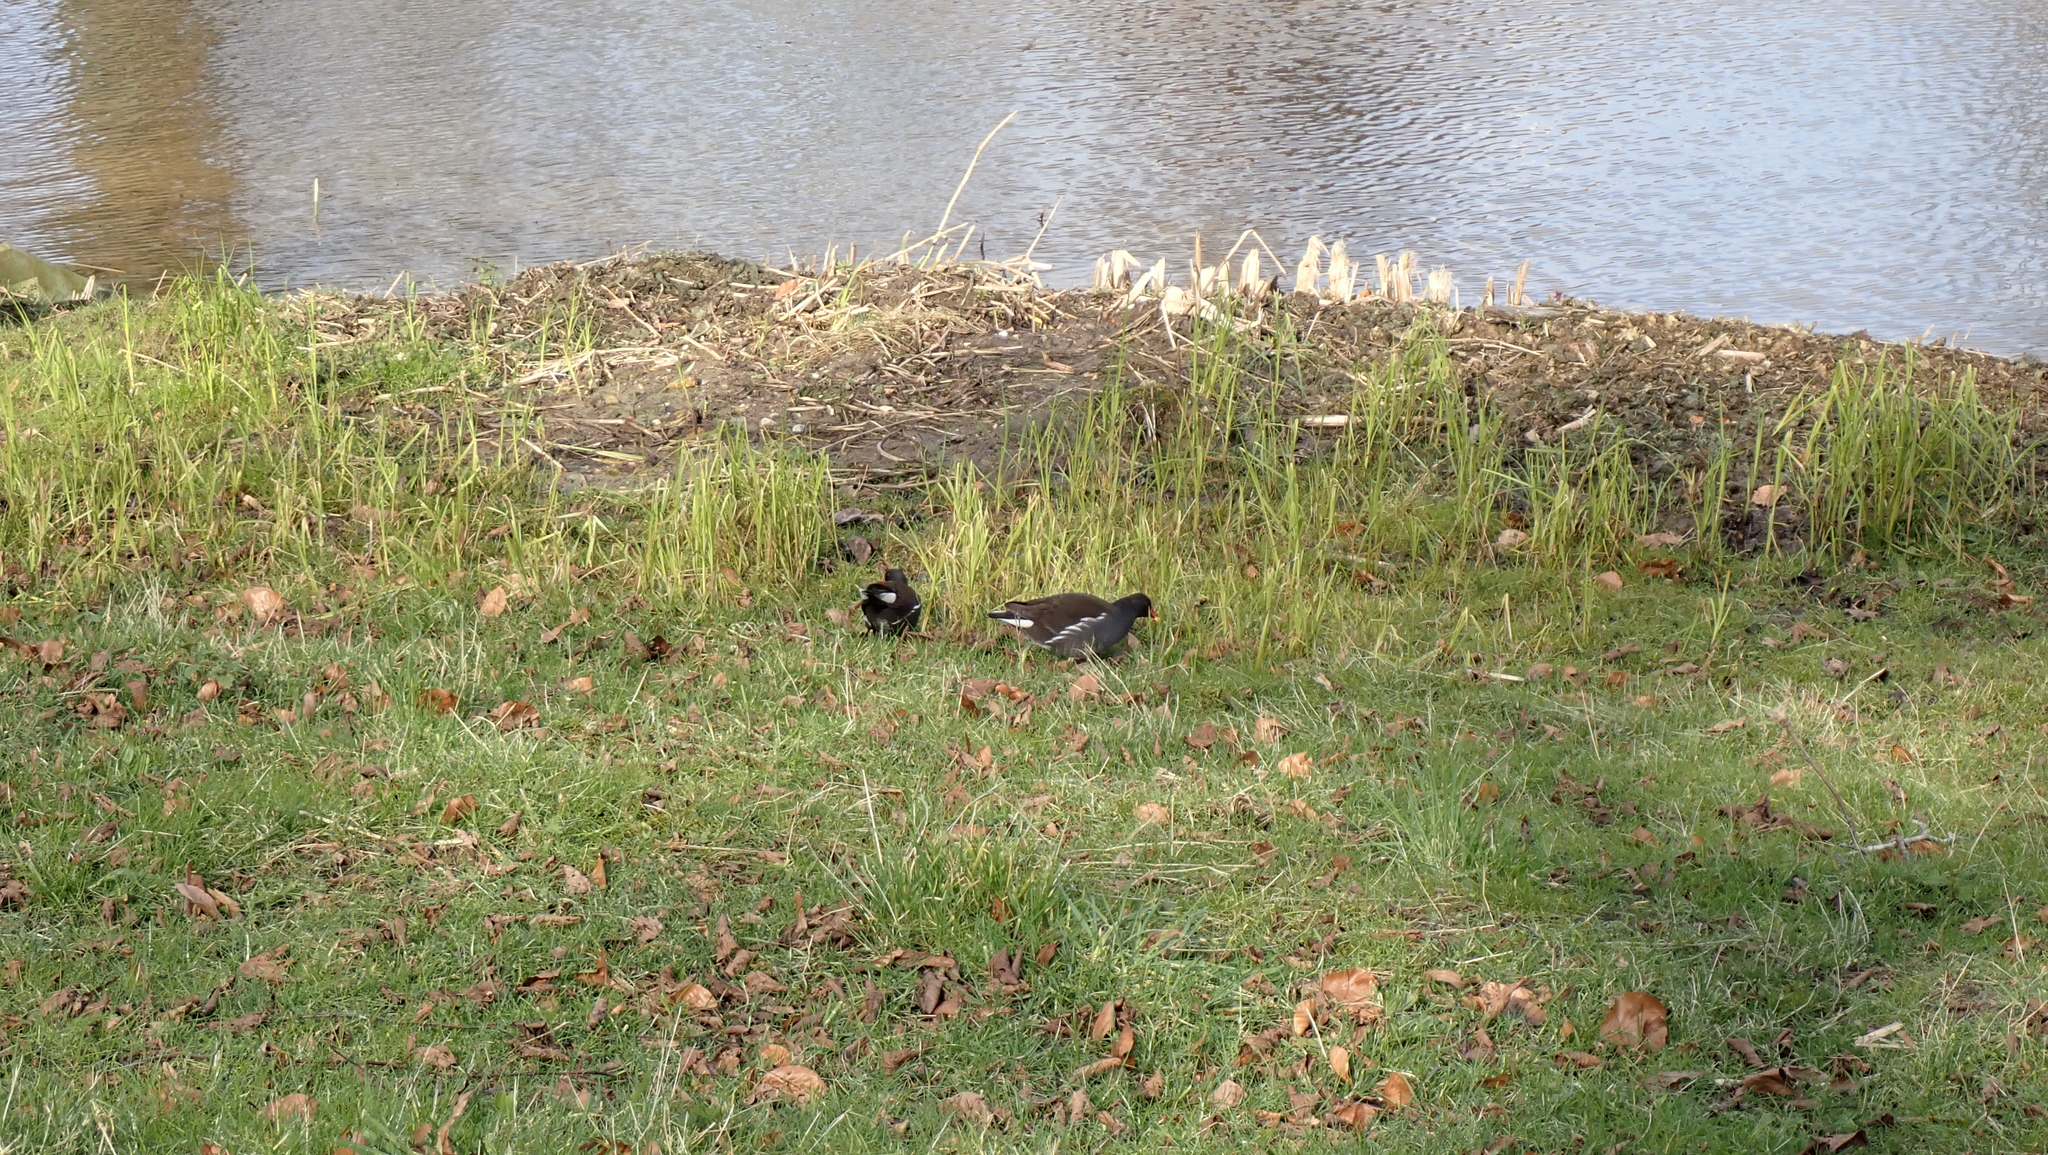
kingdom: Animalia
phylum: Chordata
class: Aves
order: Gruiformes
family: Rallidae
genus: Gallinula
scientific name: Gallinula chloropus
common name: Common moorhen
